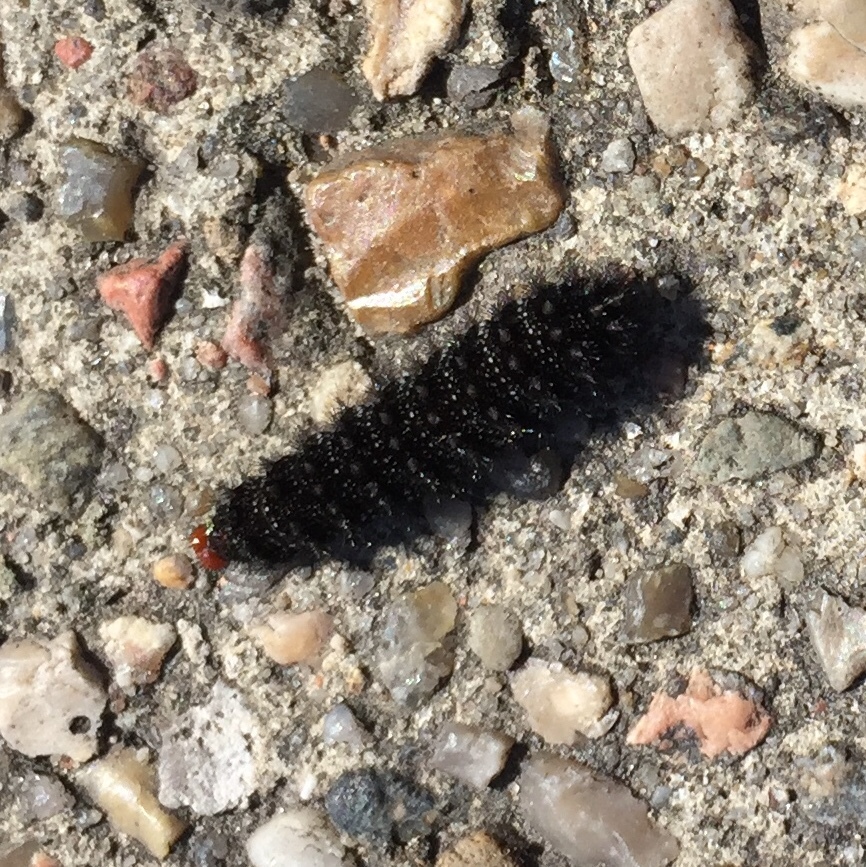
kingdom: Animalia
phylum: Arthropoda
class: Insecta
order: Lepidoptera
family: Nymphalidae
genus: Melitaea
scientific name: Melitaea cinxia
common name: Glanville fritillary
